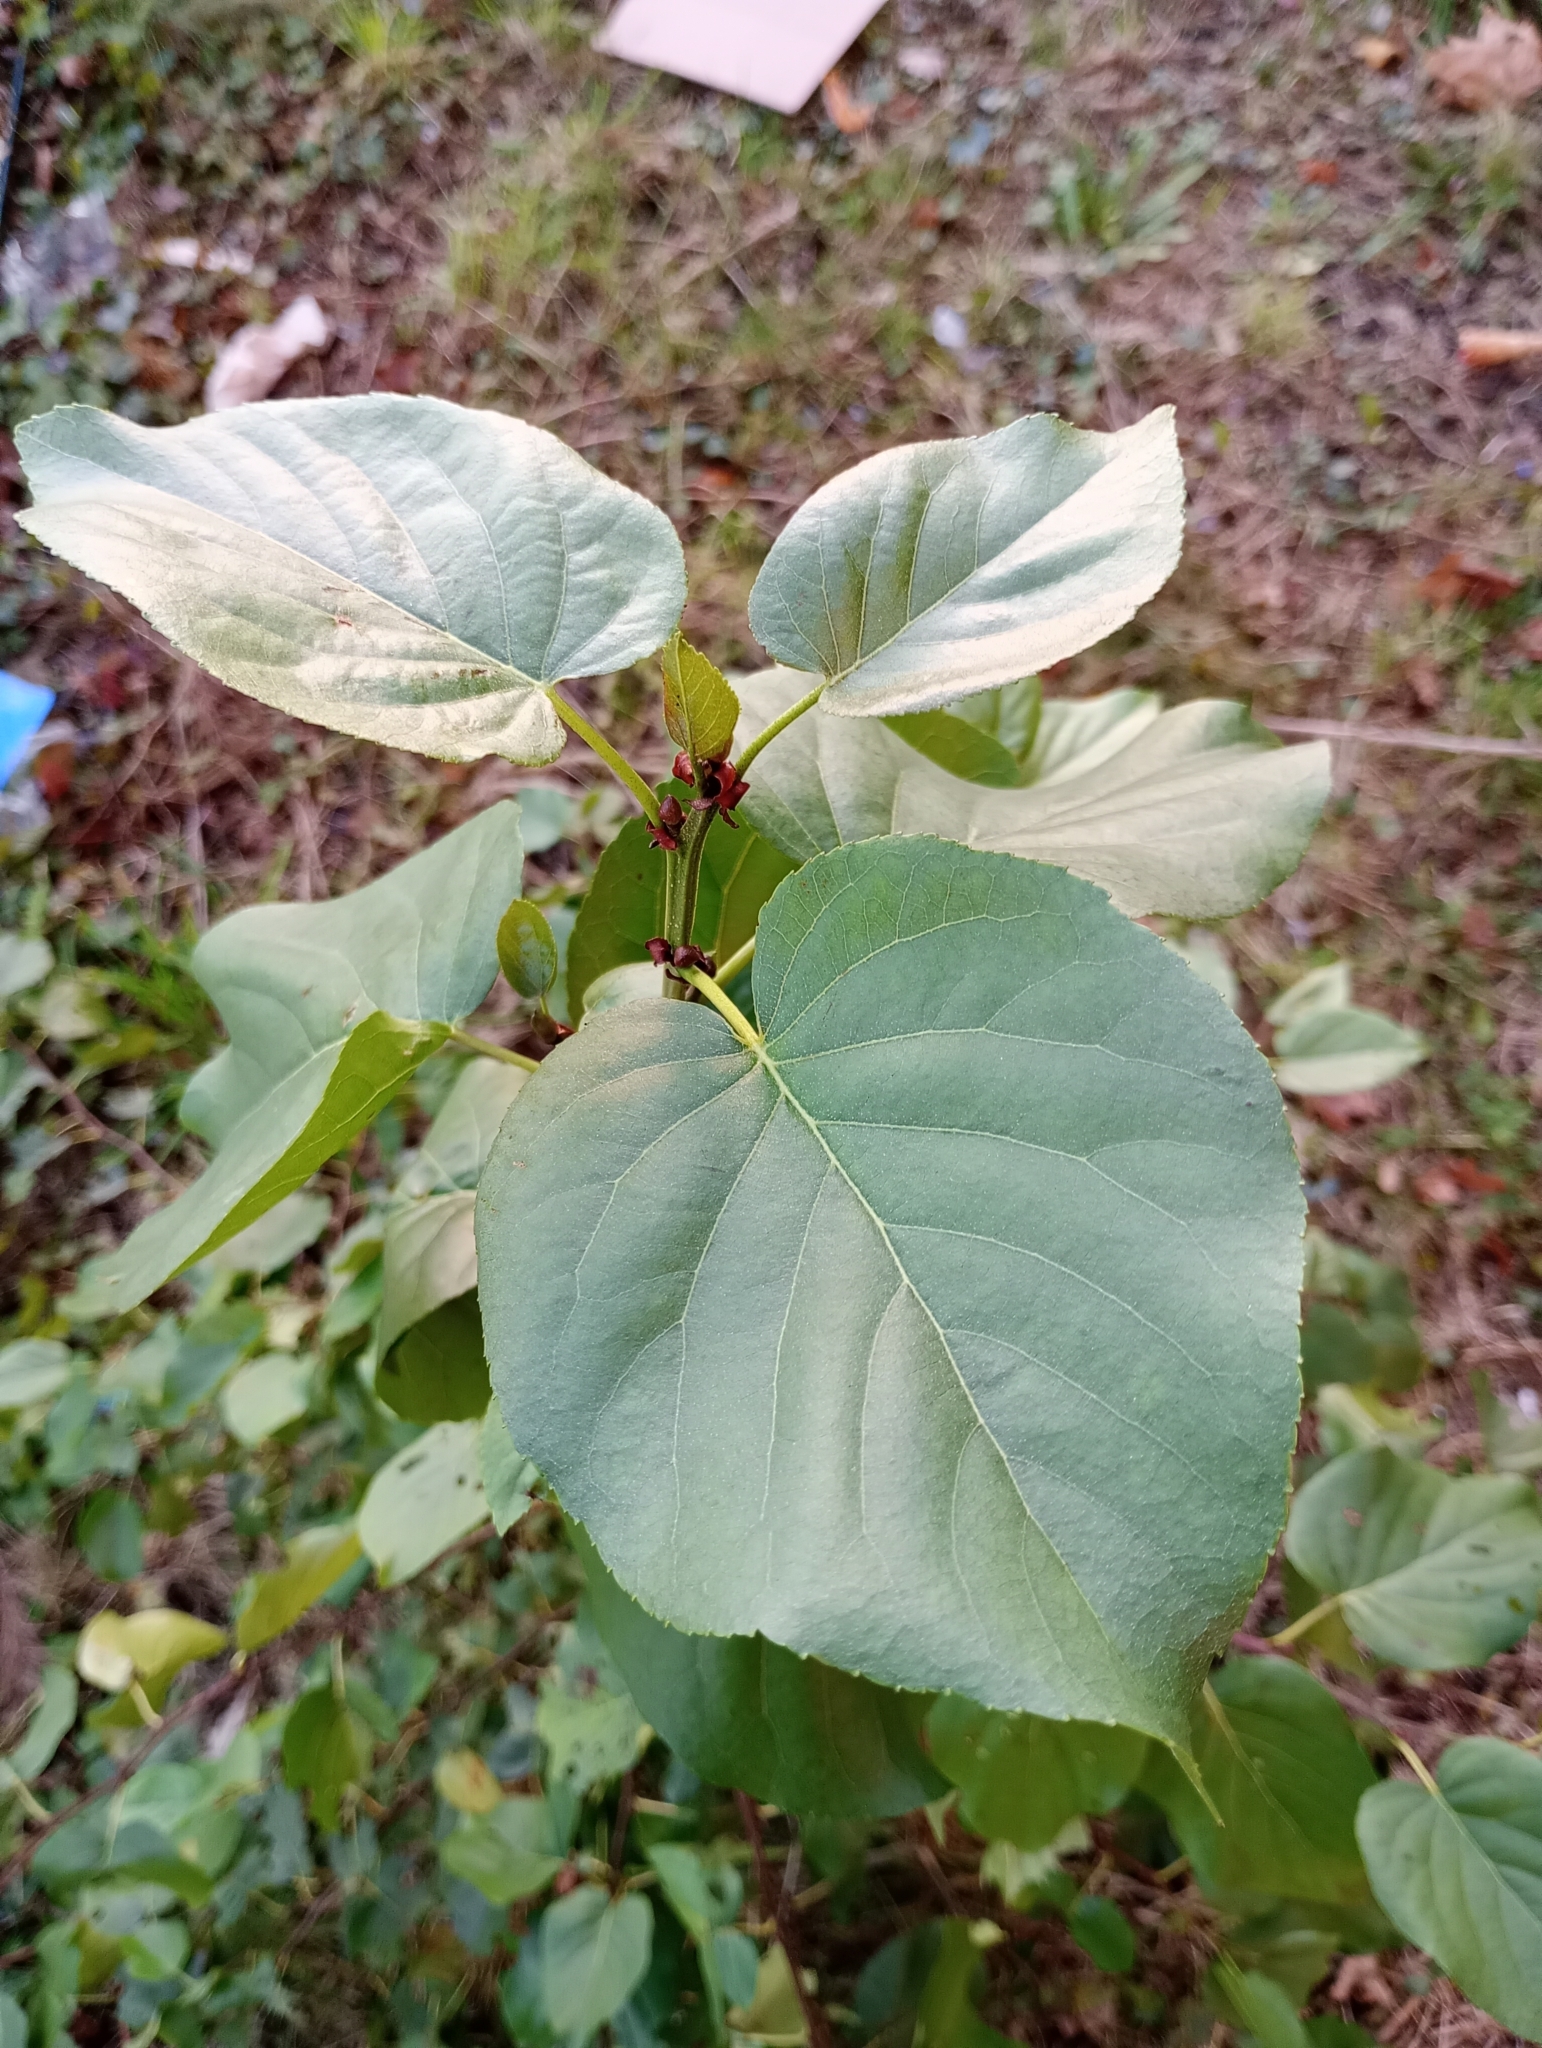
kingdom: Plantae
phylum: Tracheophyta
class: Magnoliopsida
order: Fagales
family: Betulaceae
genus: Alnus
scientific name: Alnus cordata
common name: Italian alder
